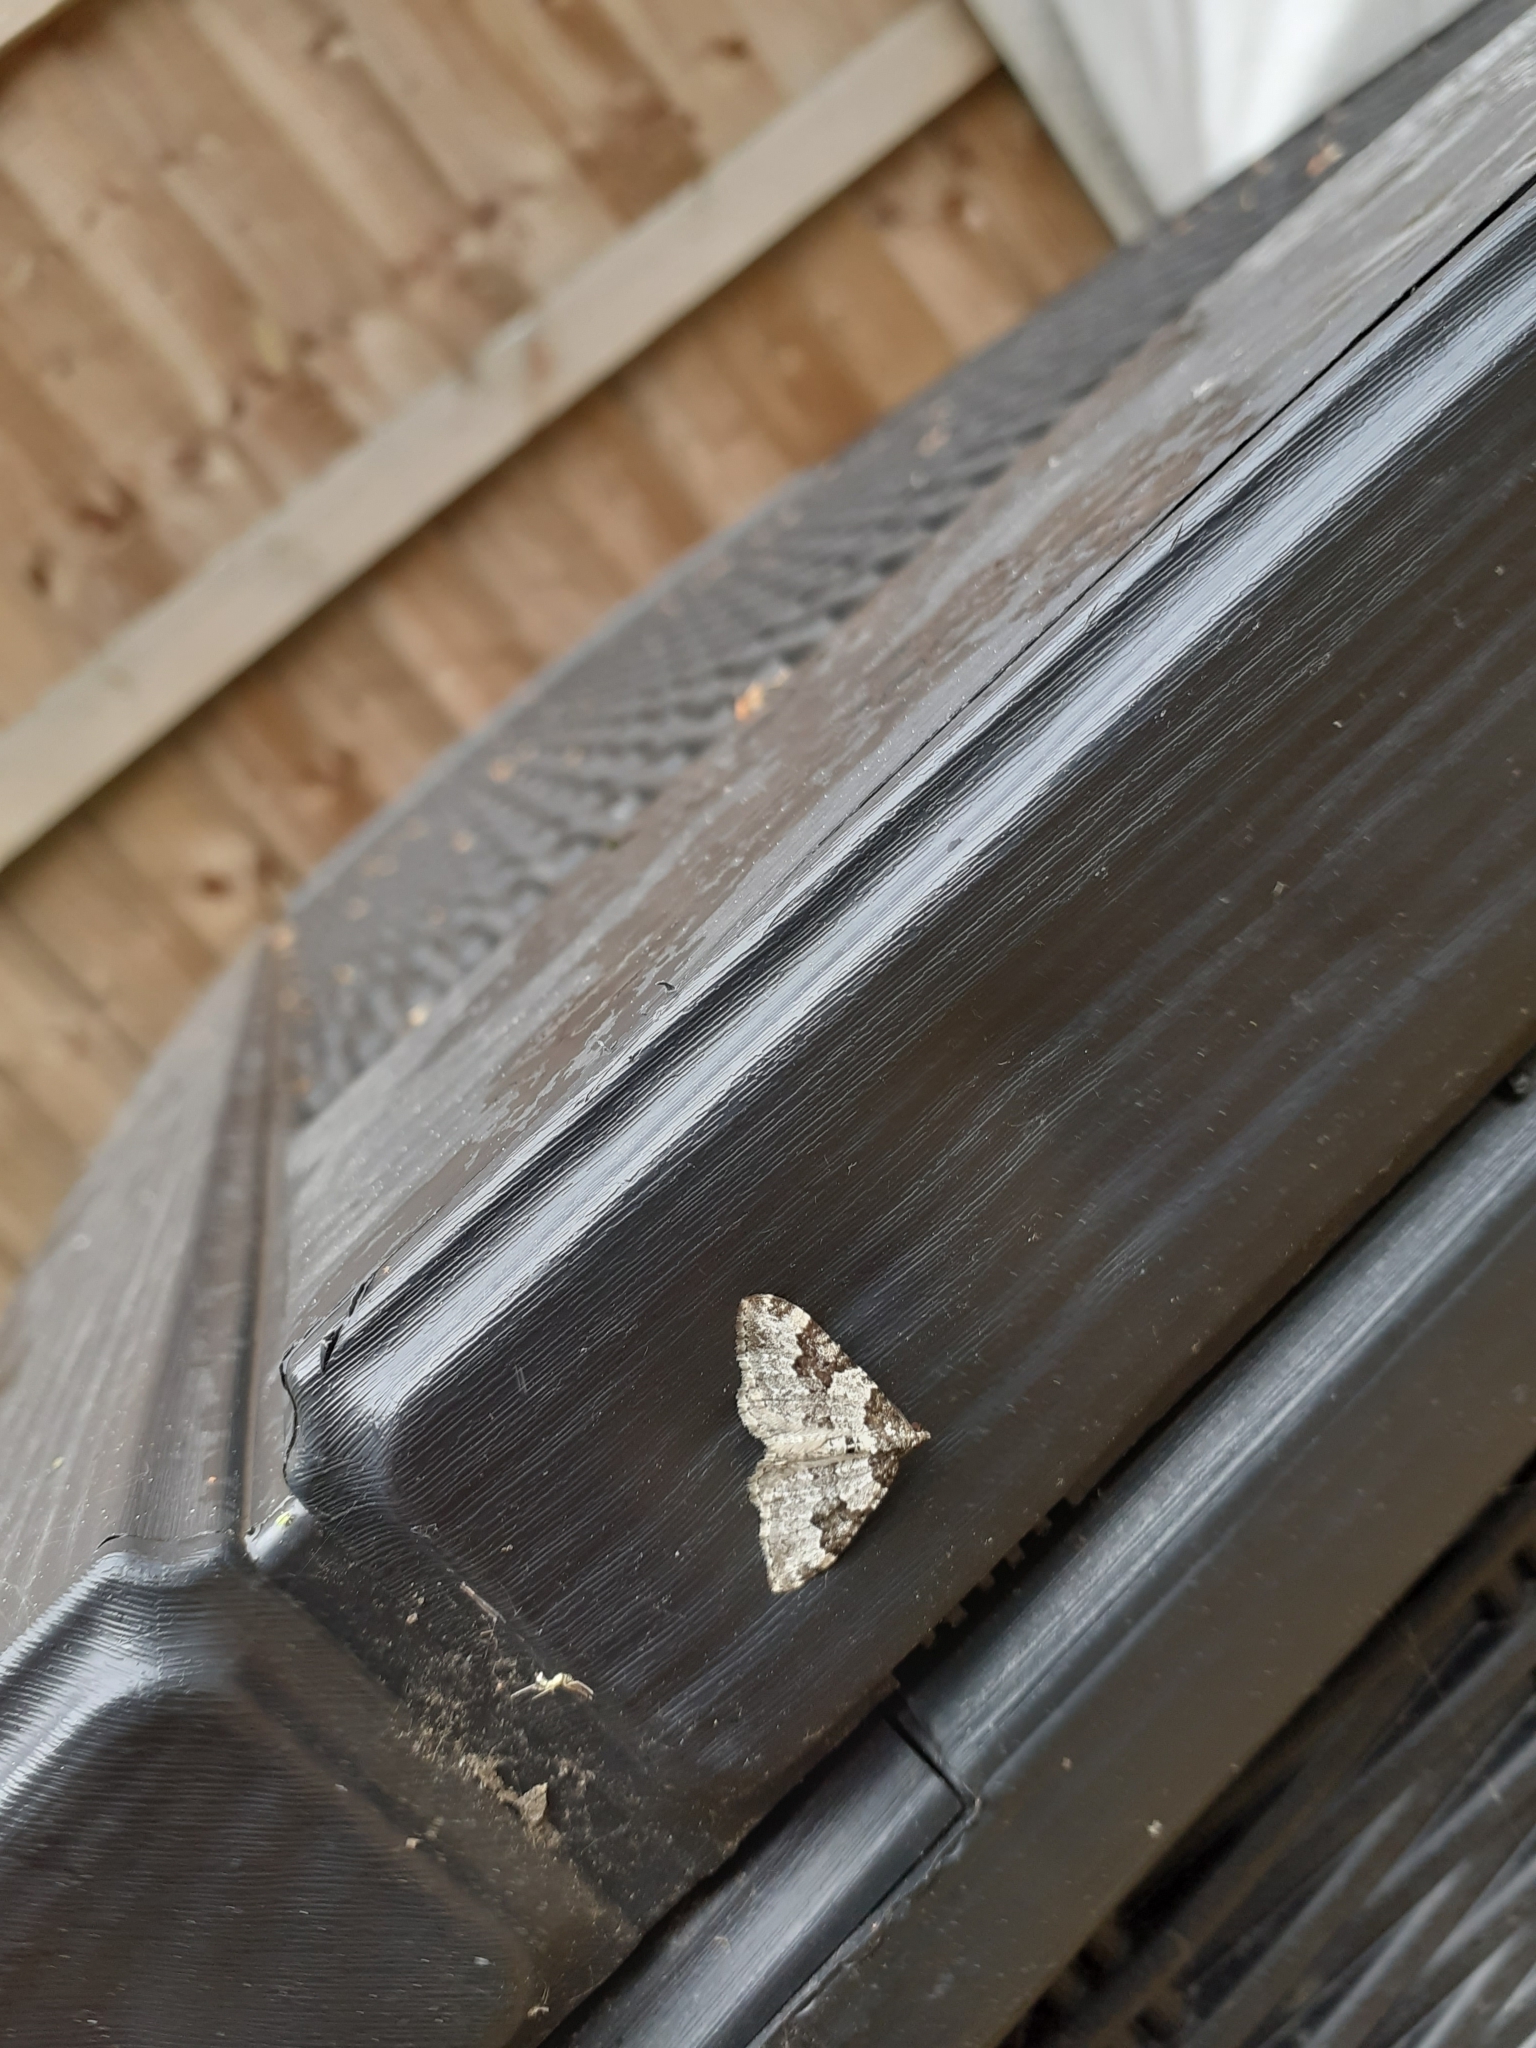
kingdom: Animalia
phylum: Arthropoda
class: Insecta
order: Lepidoptera
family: Geometridae
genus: Xanthorhoe
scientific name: Xanthorhoe fluctuata
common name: Garden carpet
